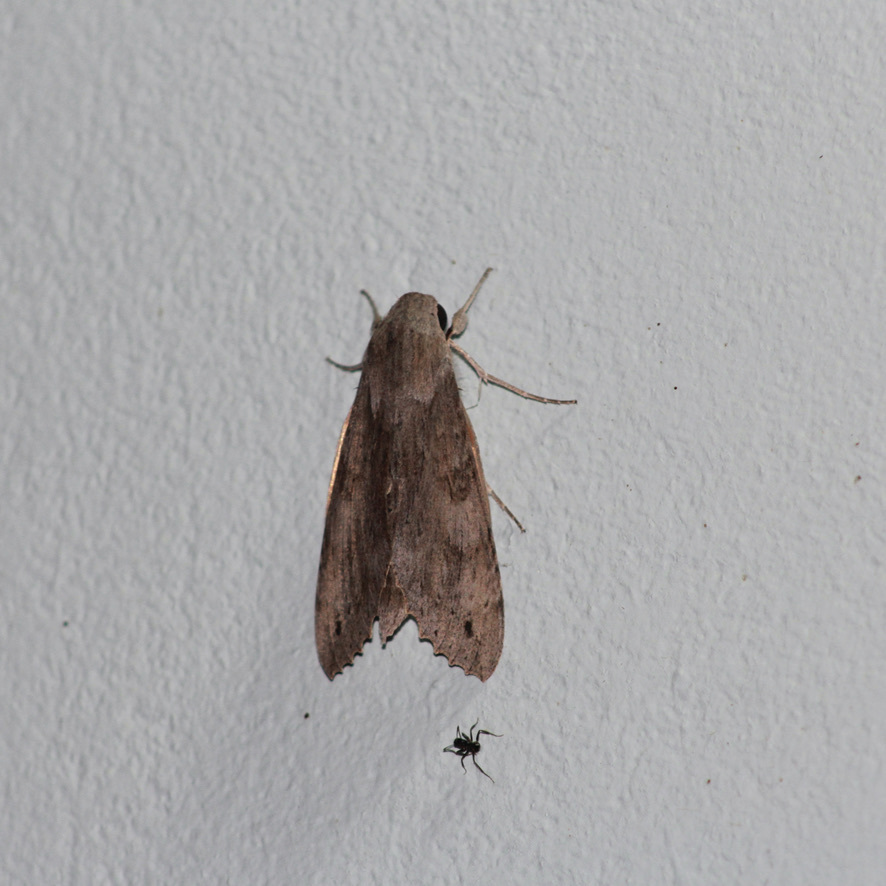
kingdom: Animalia
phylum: Arthropoda
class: Insecta
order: Lepidoptera
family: Sphingidae
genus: Erinnyis
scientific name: Erinnyis ello
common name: Ello sphinx
